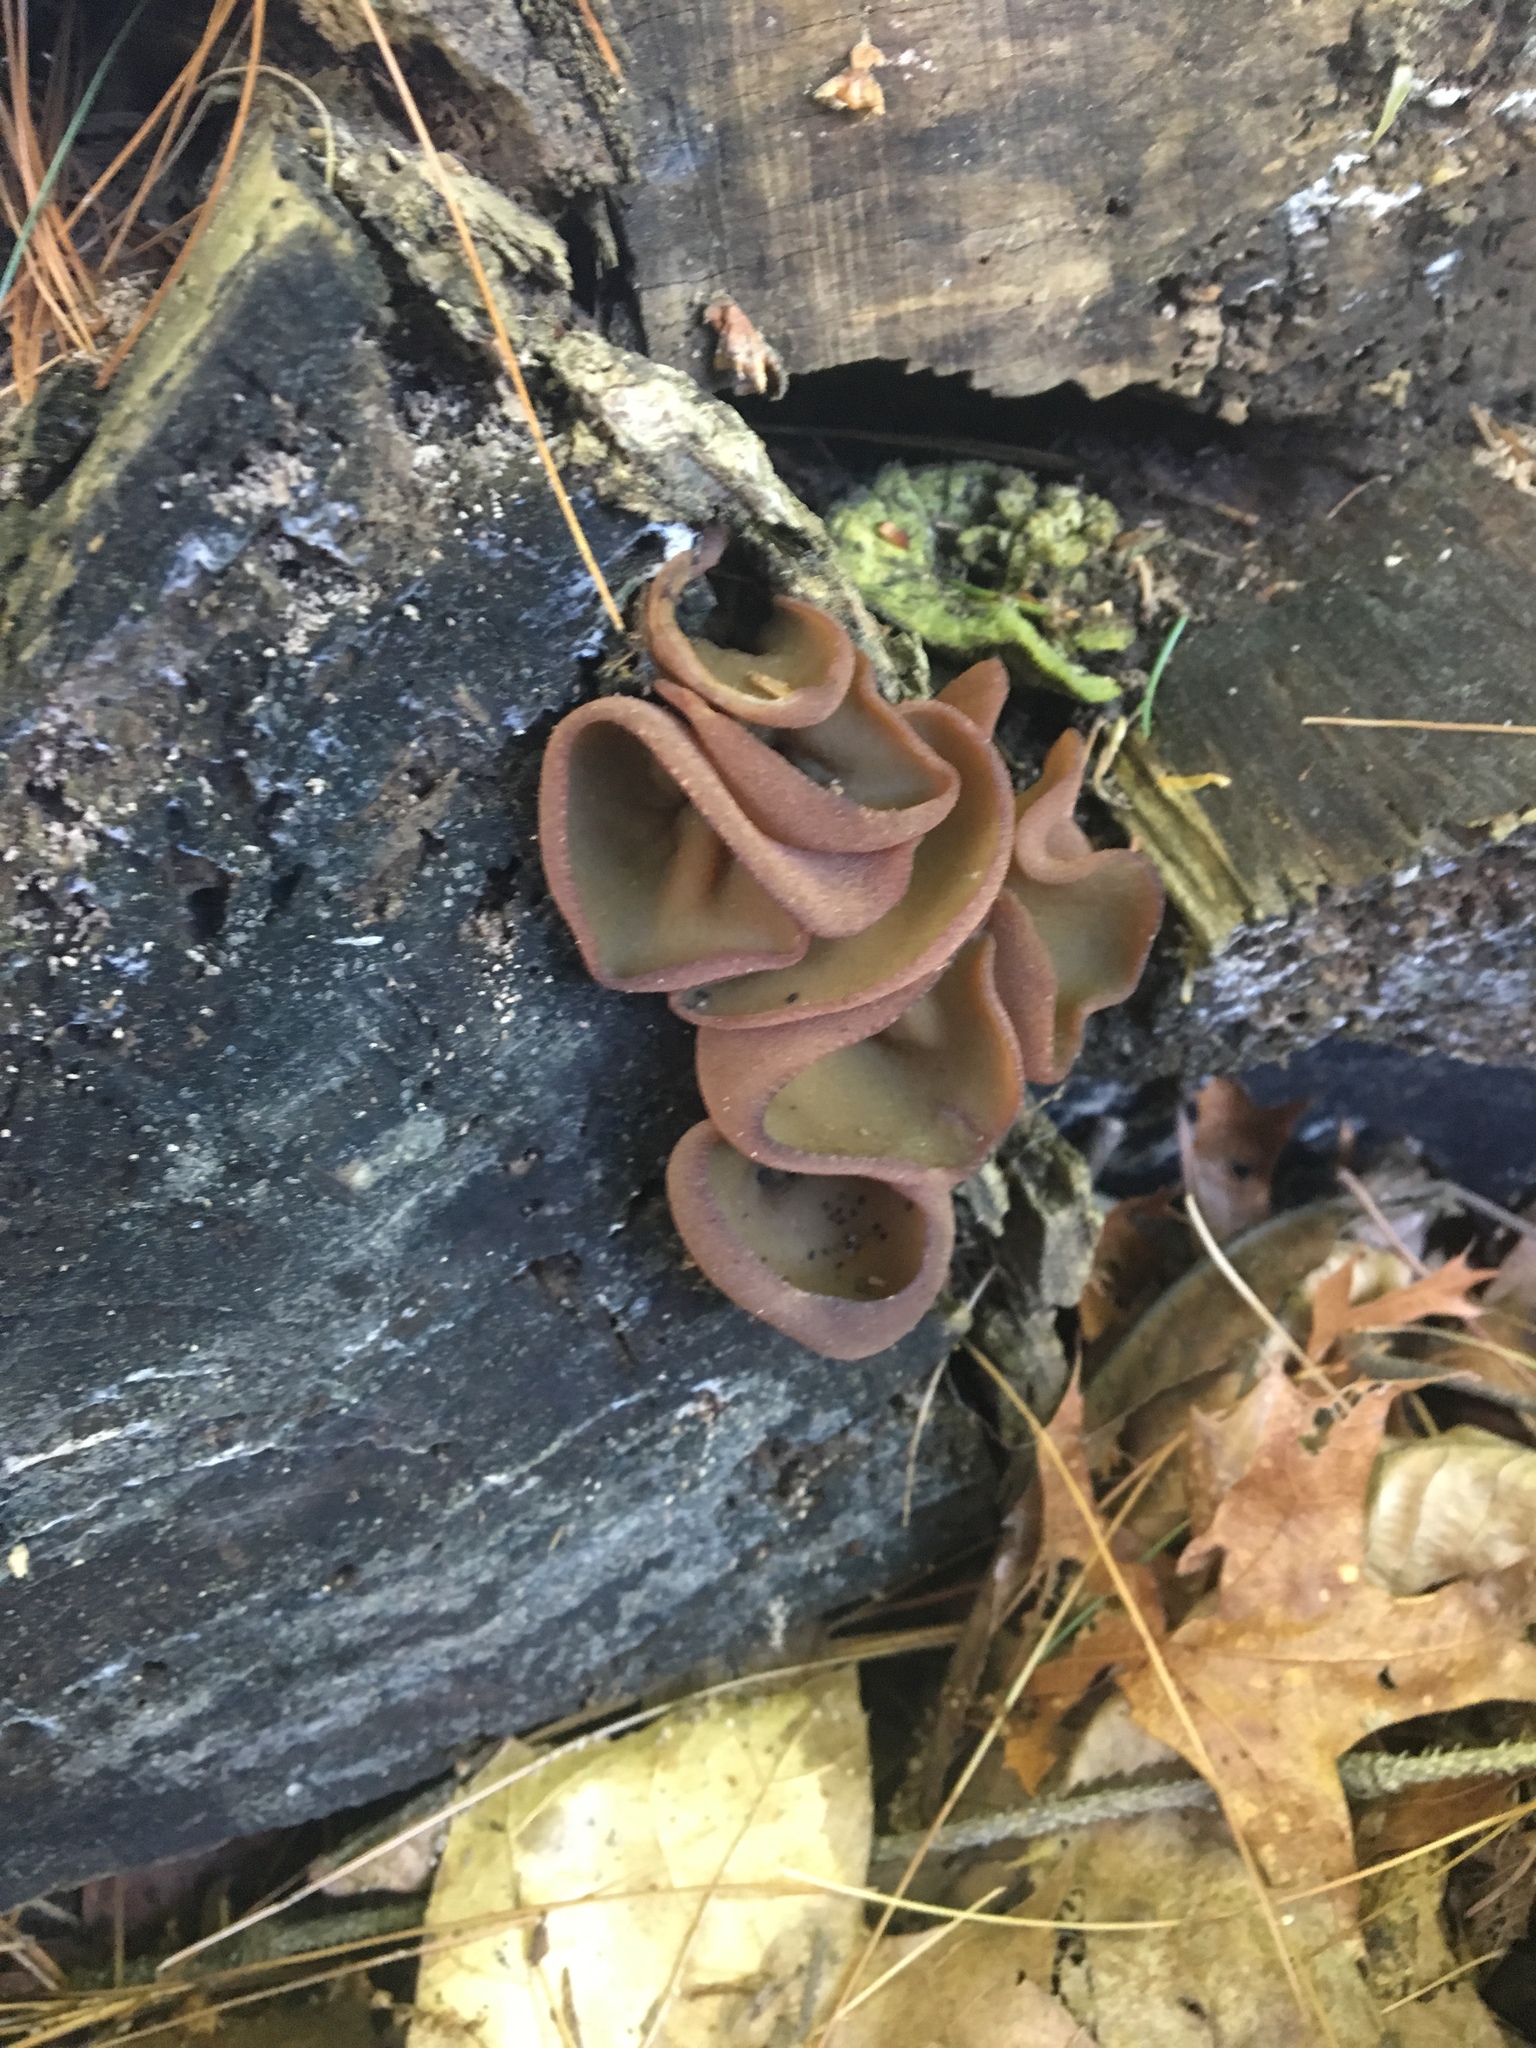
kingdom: Fungi
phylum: Ascomycota
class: Pezizomycetes
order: Pezizales
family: Pezizaceae
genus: Phylloscypha
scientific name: Phylloscypha phyllogena
